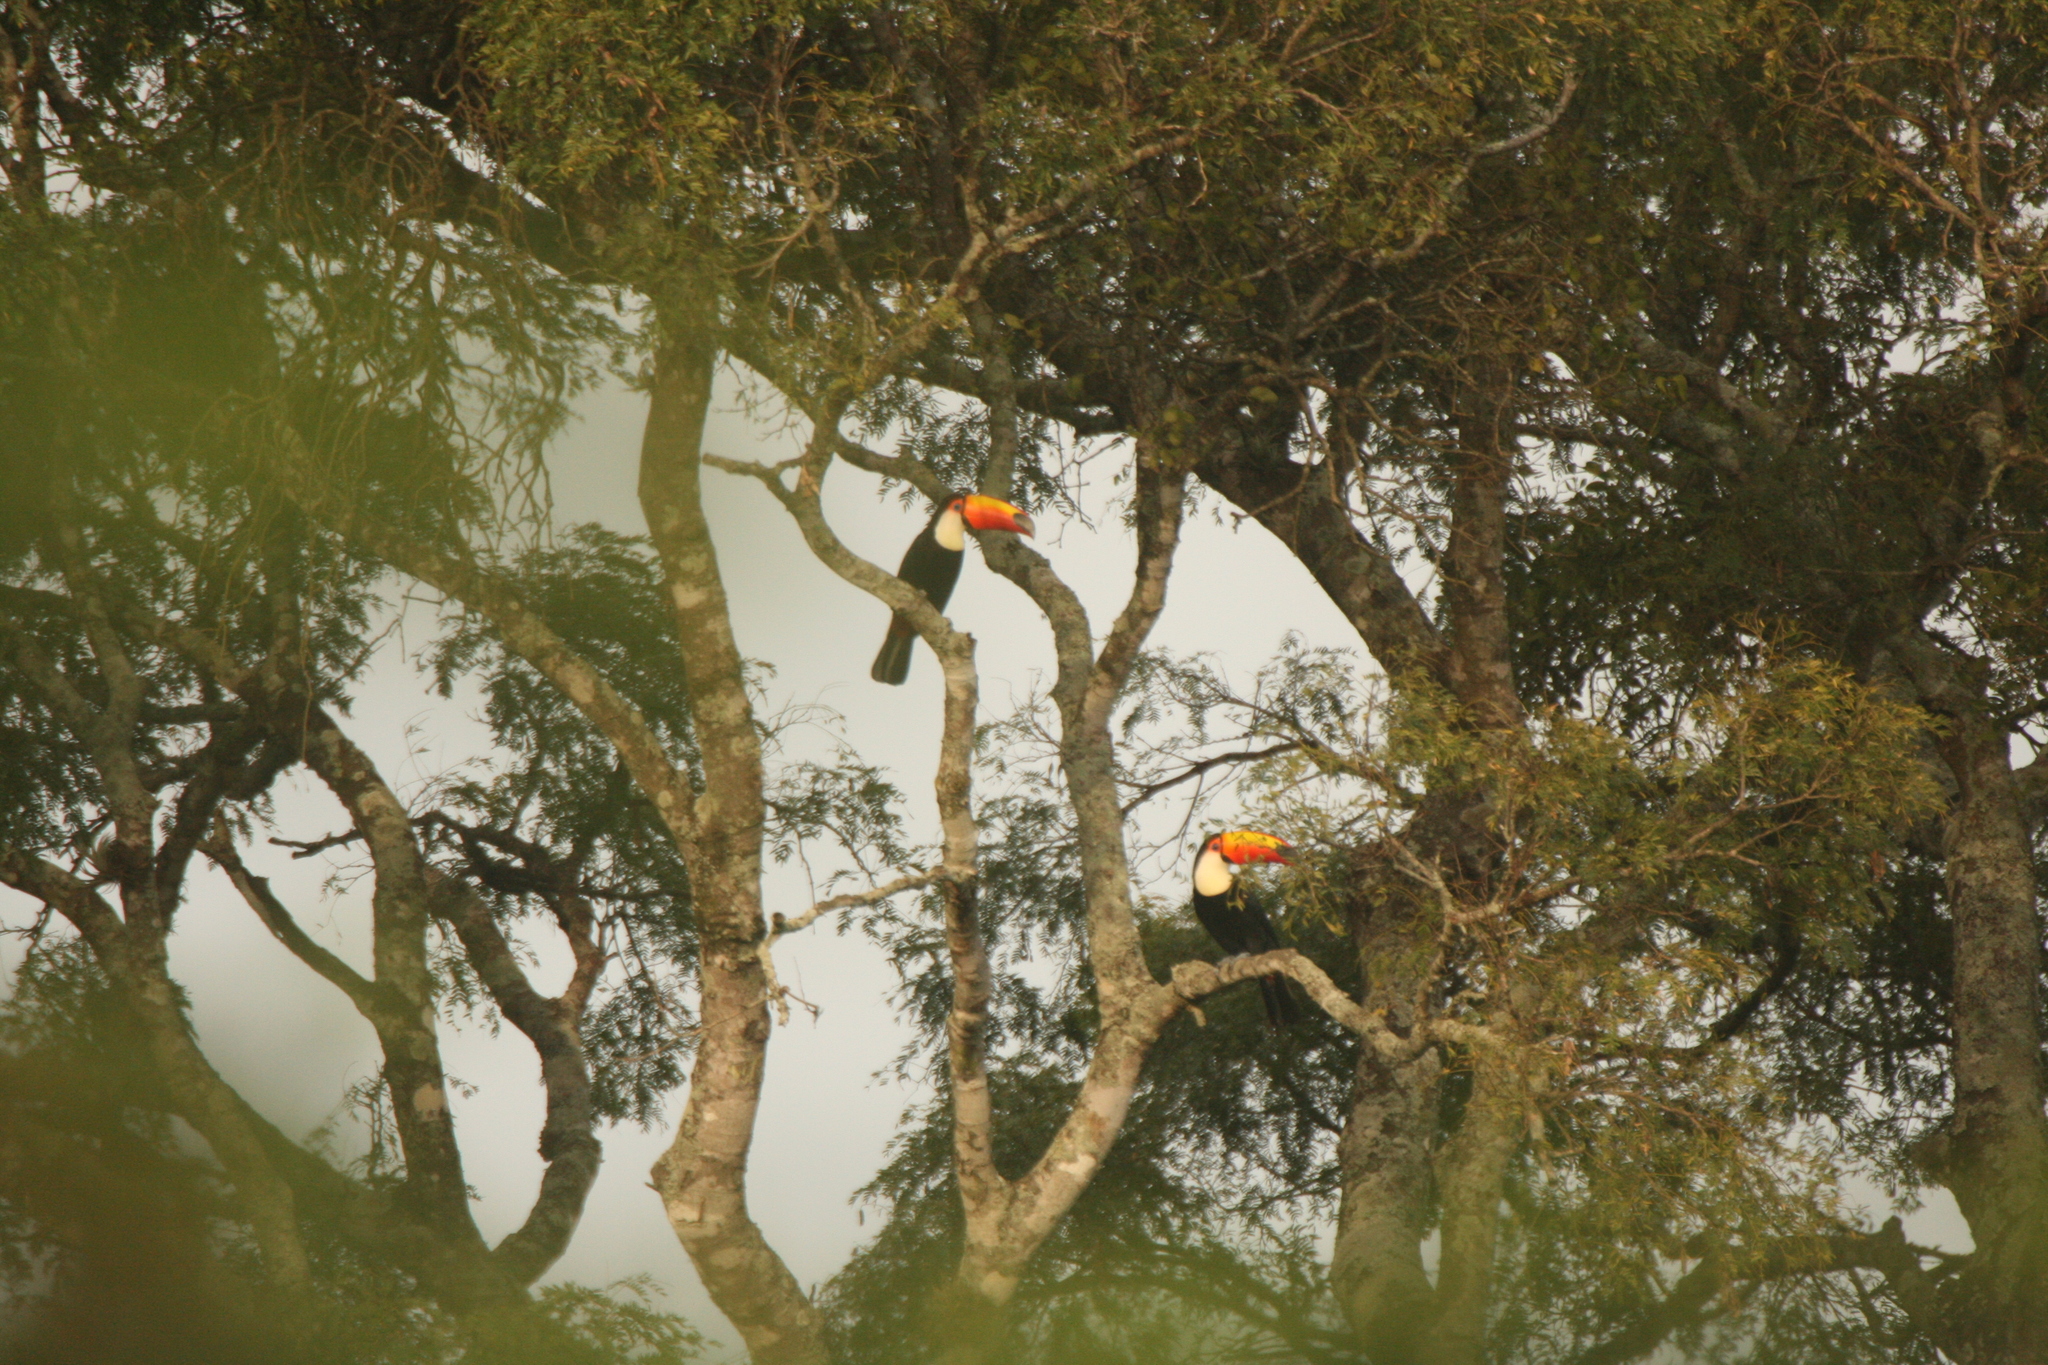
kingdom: Animalia
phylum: Chordata
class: Aves
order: Piciformes
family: Ramphastidae
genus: Ramphastos
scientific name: Ramphastos toco
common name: Toco toucan
